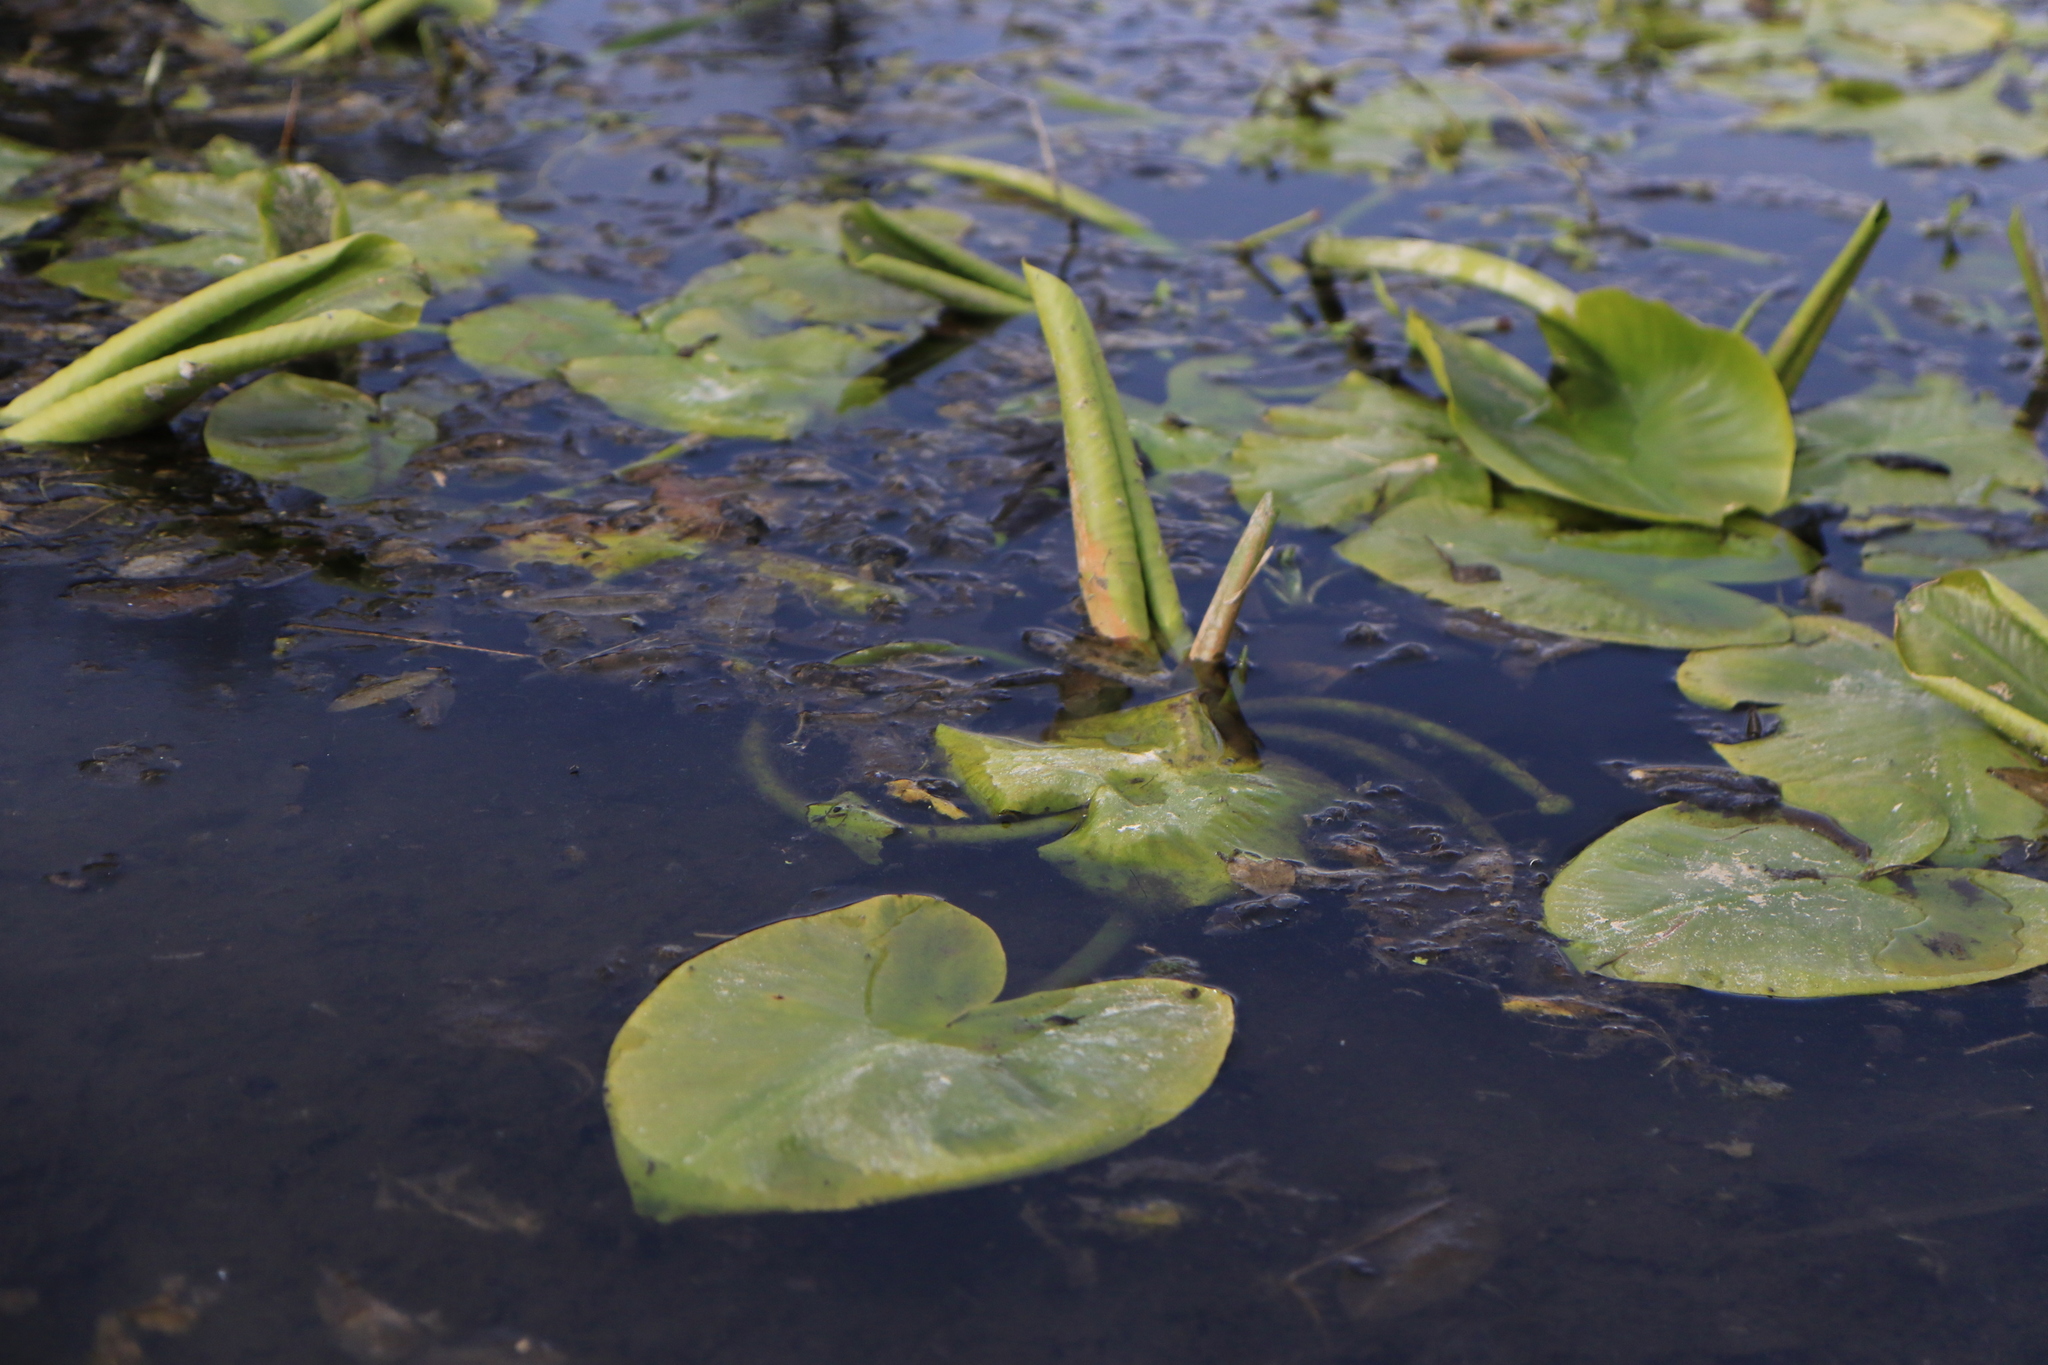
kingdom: Plantae
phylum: Tracheophyta
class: Magnoliopsida
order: Nymphaeales
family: Nymphaeaceae
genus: Nuphar
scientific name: Nuphar polysepala
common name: Rocky mountain cow-lily
